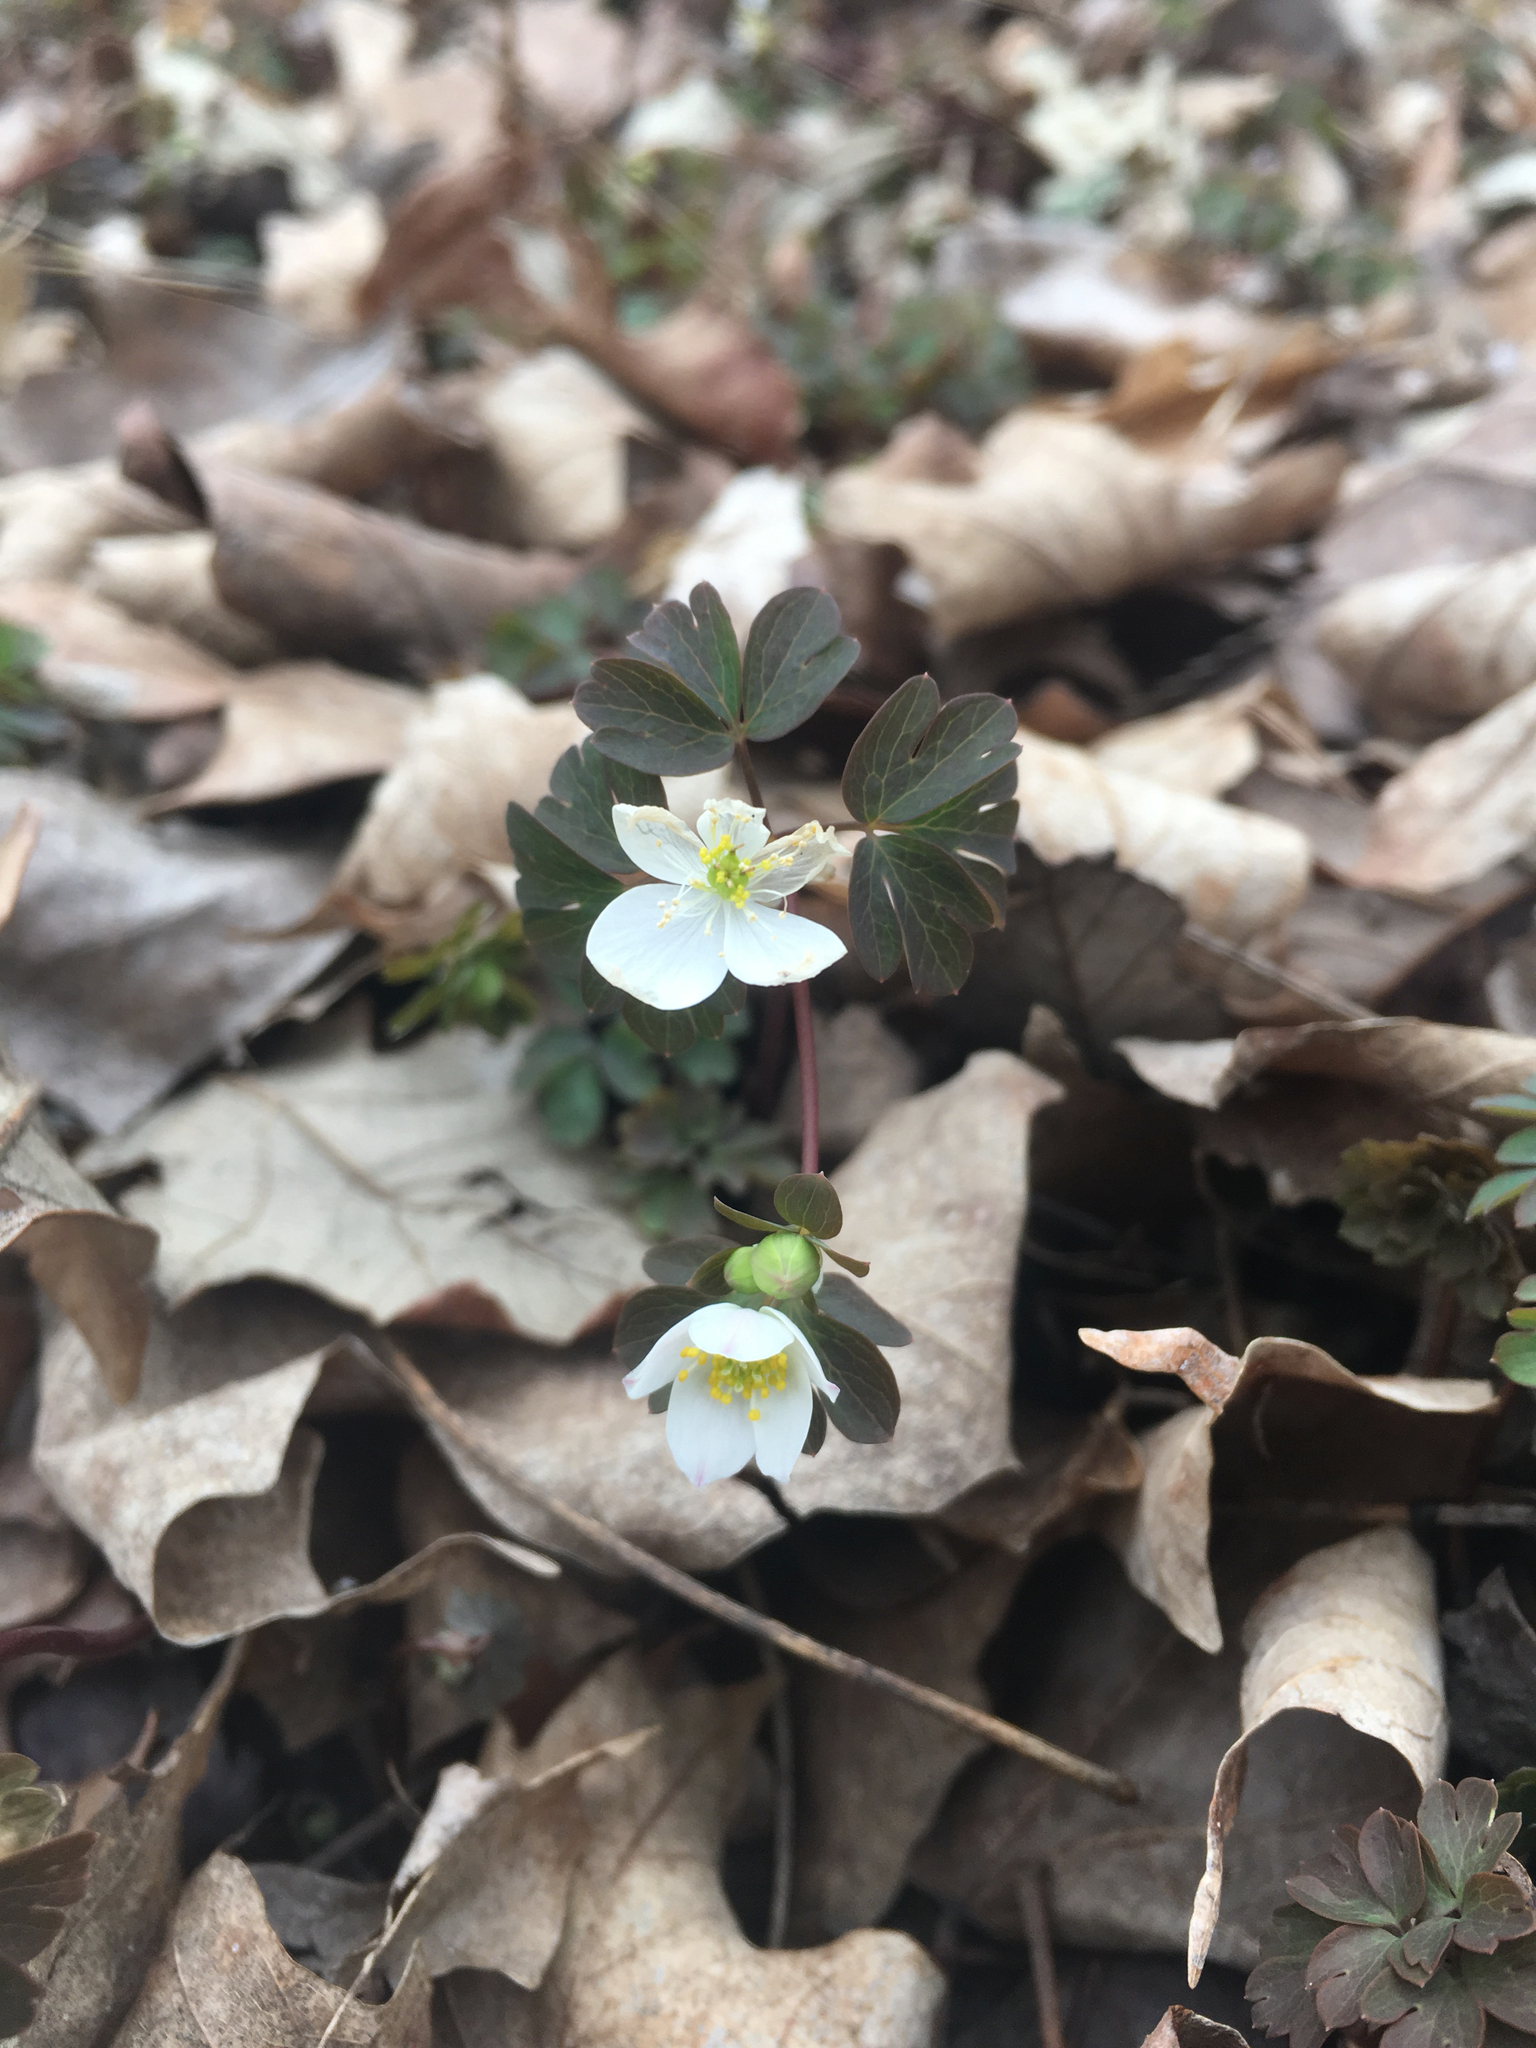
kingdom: Plantae
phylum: Tracheophyta
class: Magnoliopsida
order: Ranunculales
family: Ranunculaceae
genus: Enemion
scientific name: Enemion biternatum
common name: Eastern false rue-anemone
